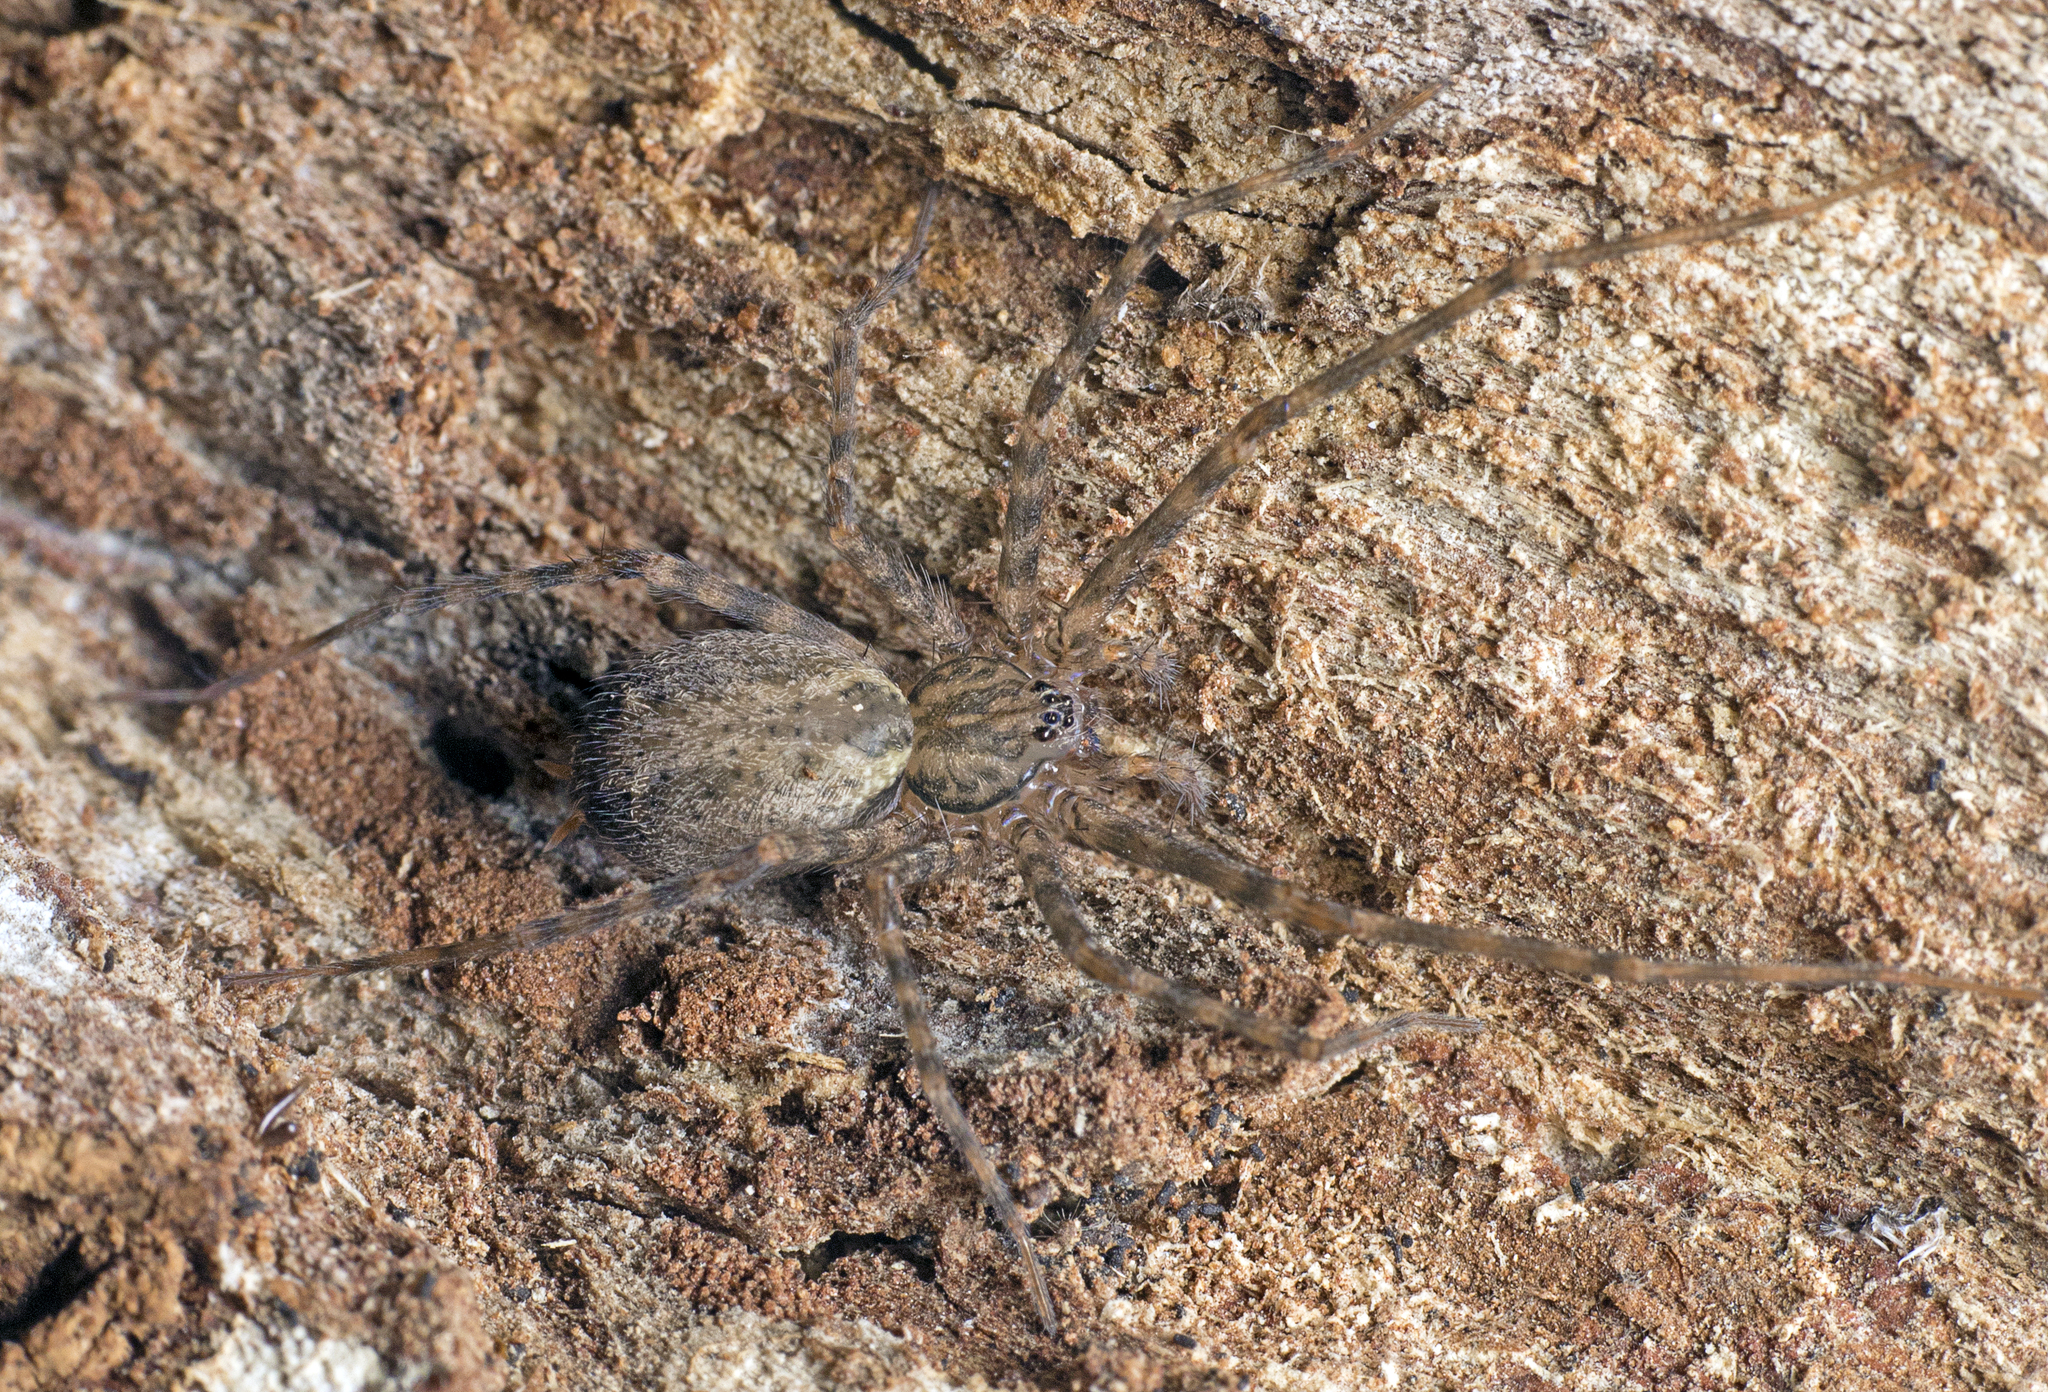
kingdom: Animalia
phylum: Arthropoda
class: Arachnida
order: Araneae
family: Stiphidiidae
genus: Stiphidion
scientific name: Stiphidion facetum
